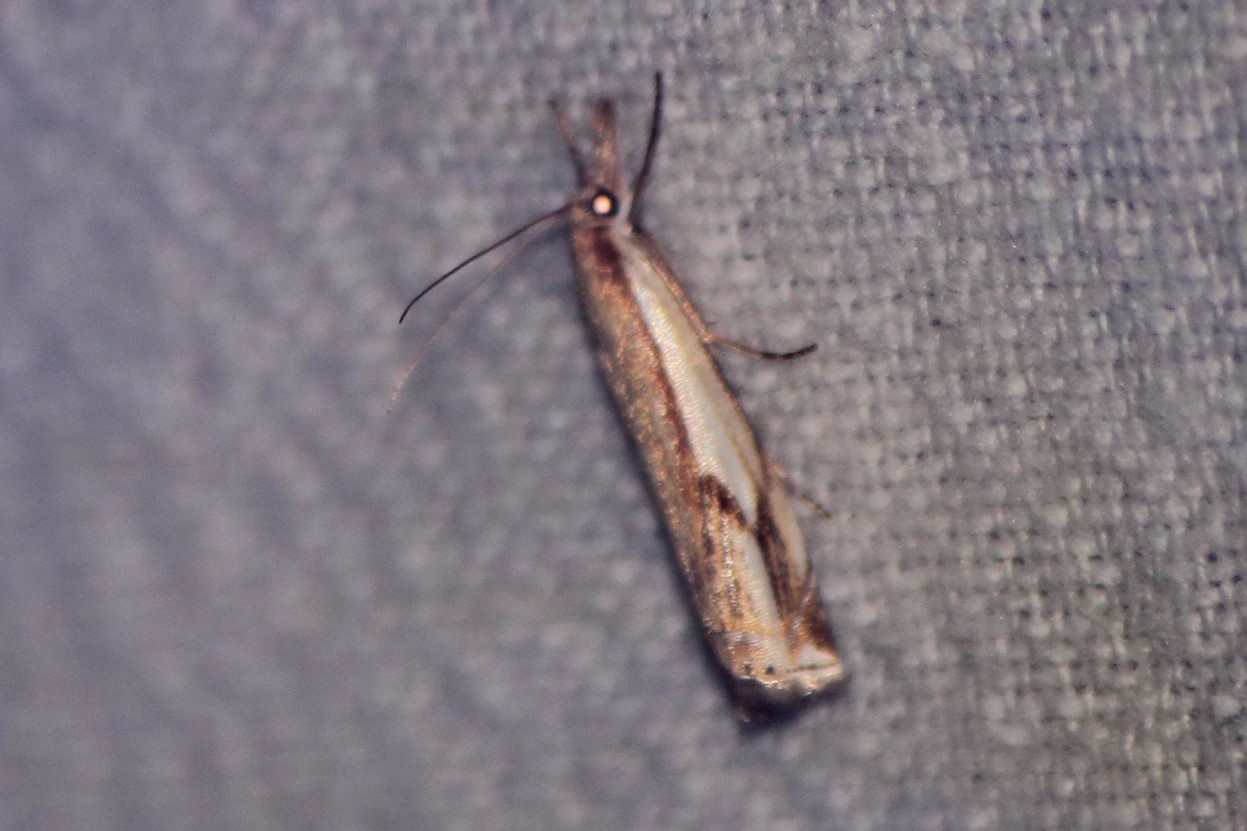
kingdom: Animalia
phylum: Arthropoda
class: Insecta
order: Lepidoptera
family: Crambidae
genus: Crambus
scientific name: Crambus agitatellus
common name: Double-banded grass-veneer
